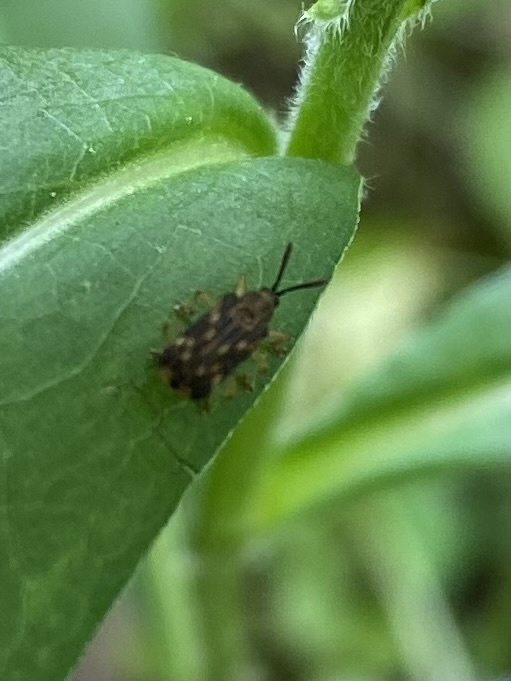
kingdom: Animalia
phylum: Arthropoda
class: Insecta
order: Coleoptera
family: Chrysomelidae
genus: Sumitrosis
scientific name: Sumitrosis inaequalis
